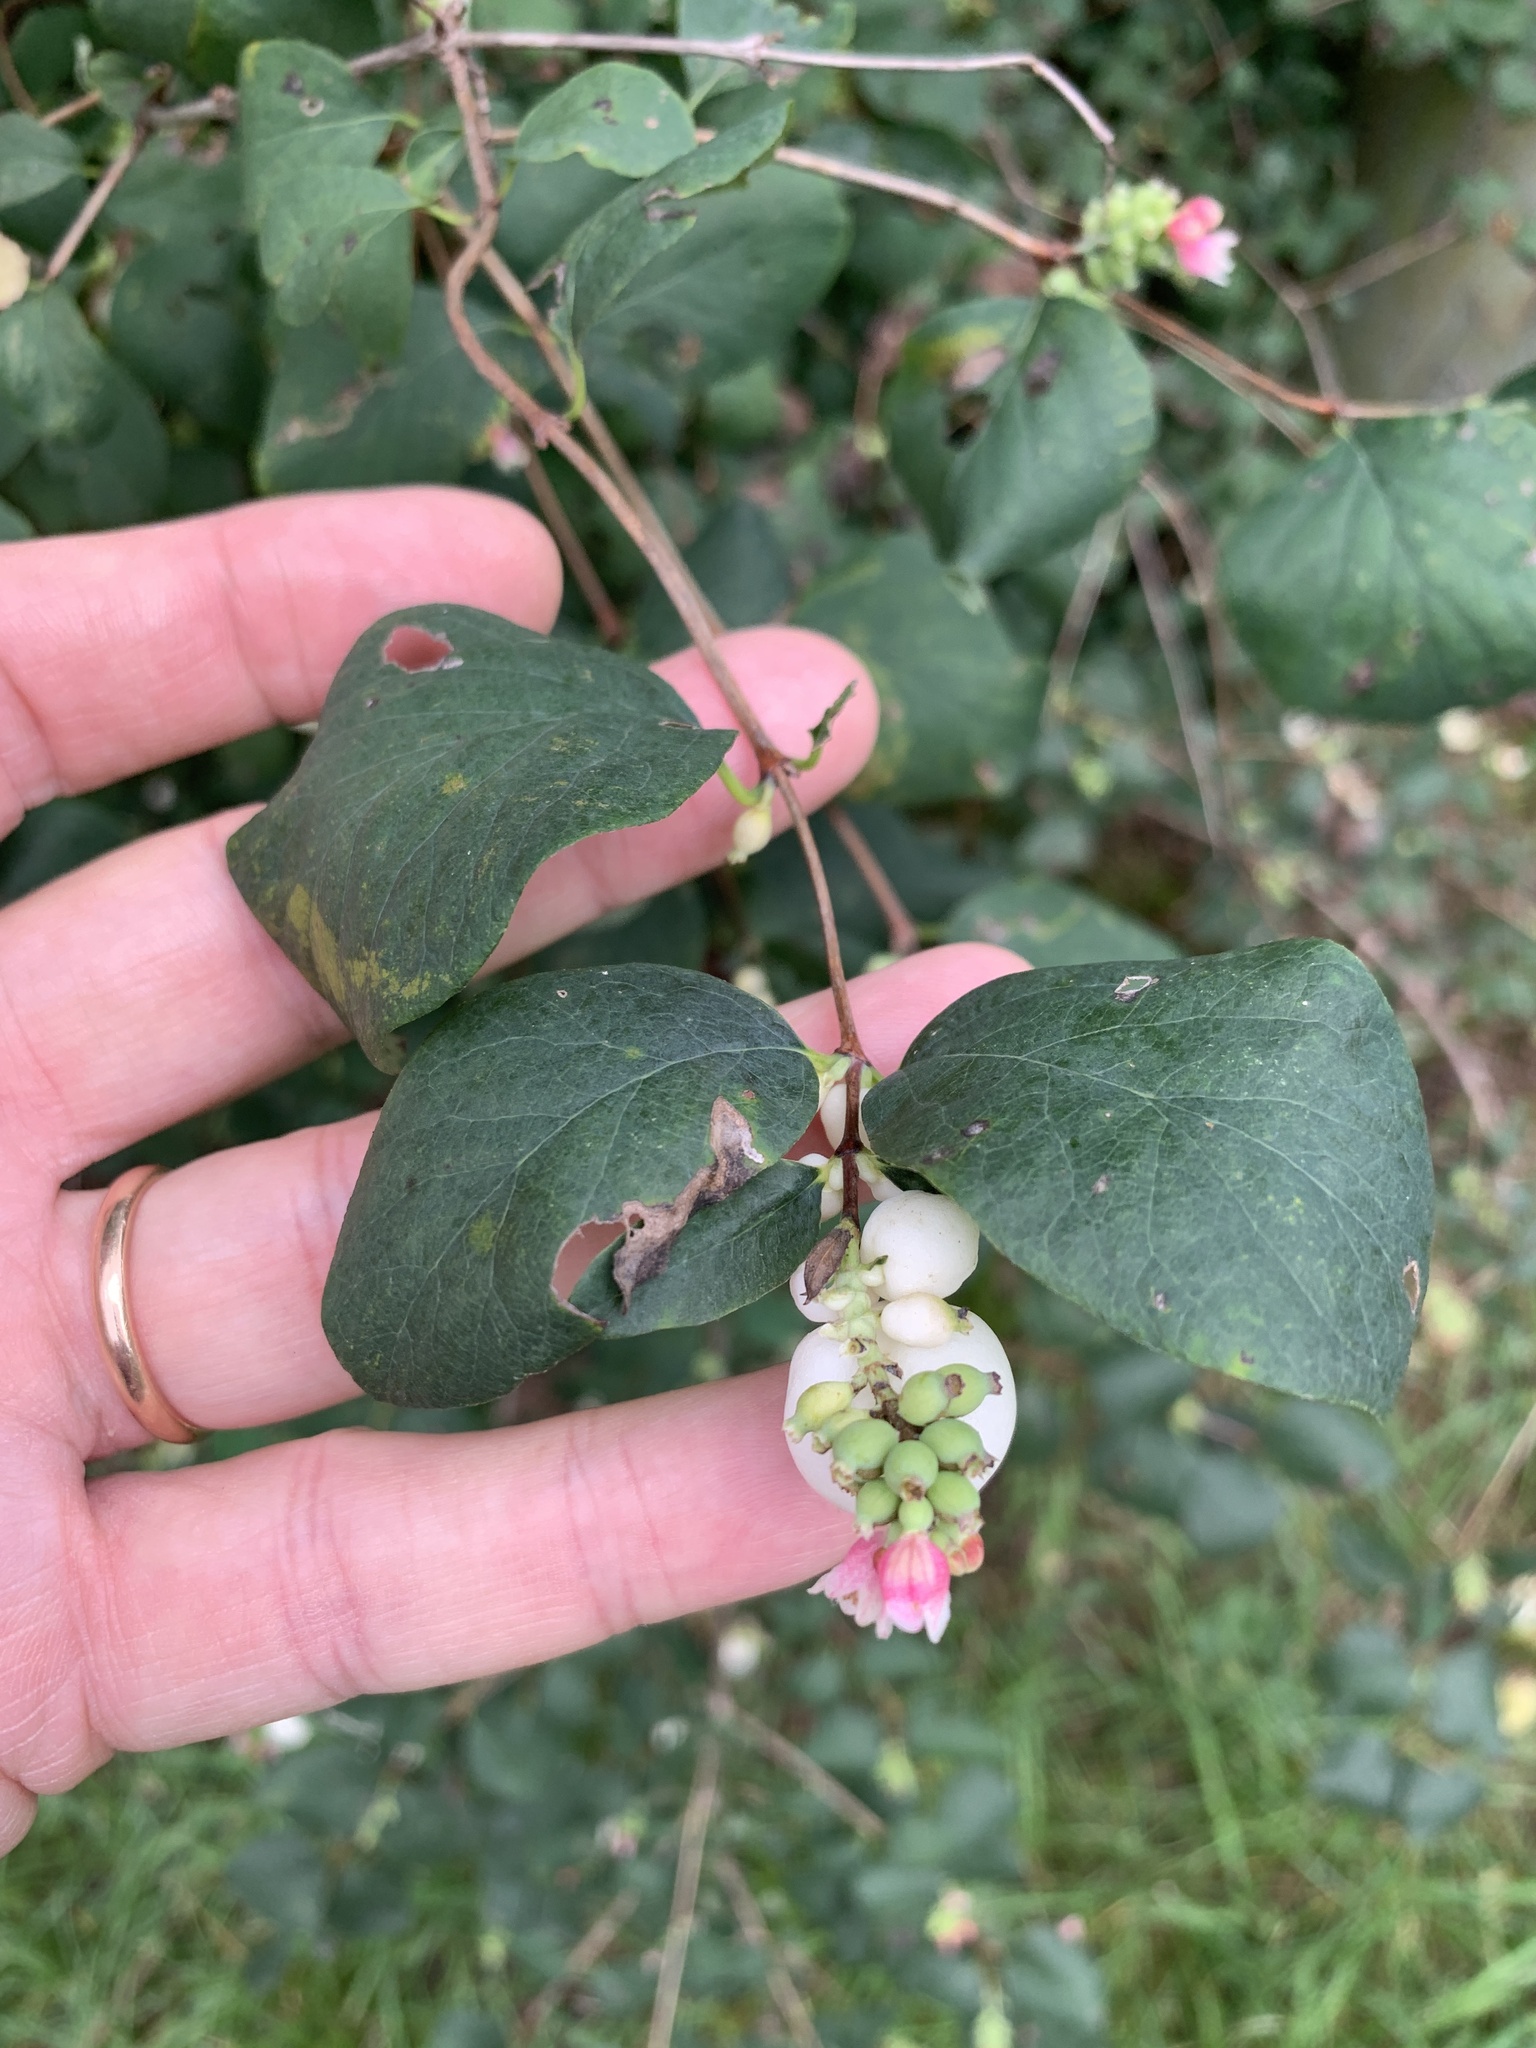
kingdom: Plantae
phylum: Tracheophyta
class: Magnoliopsida
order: Dipsacales
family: Caprifoliaceae
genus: Symphoricarpos
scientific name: Symphoricarpos albus
